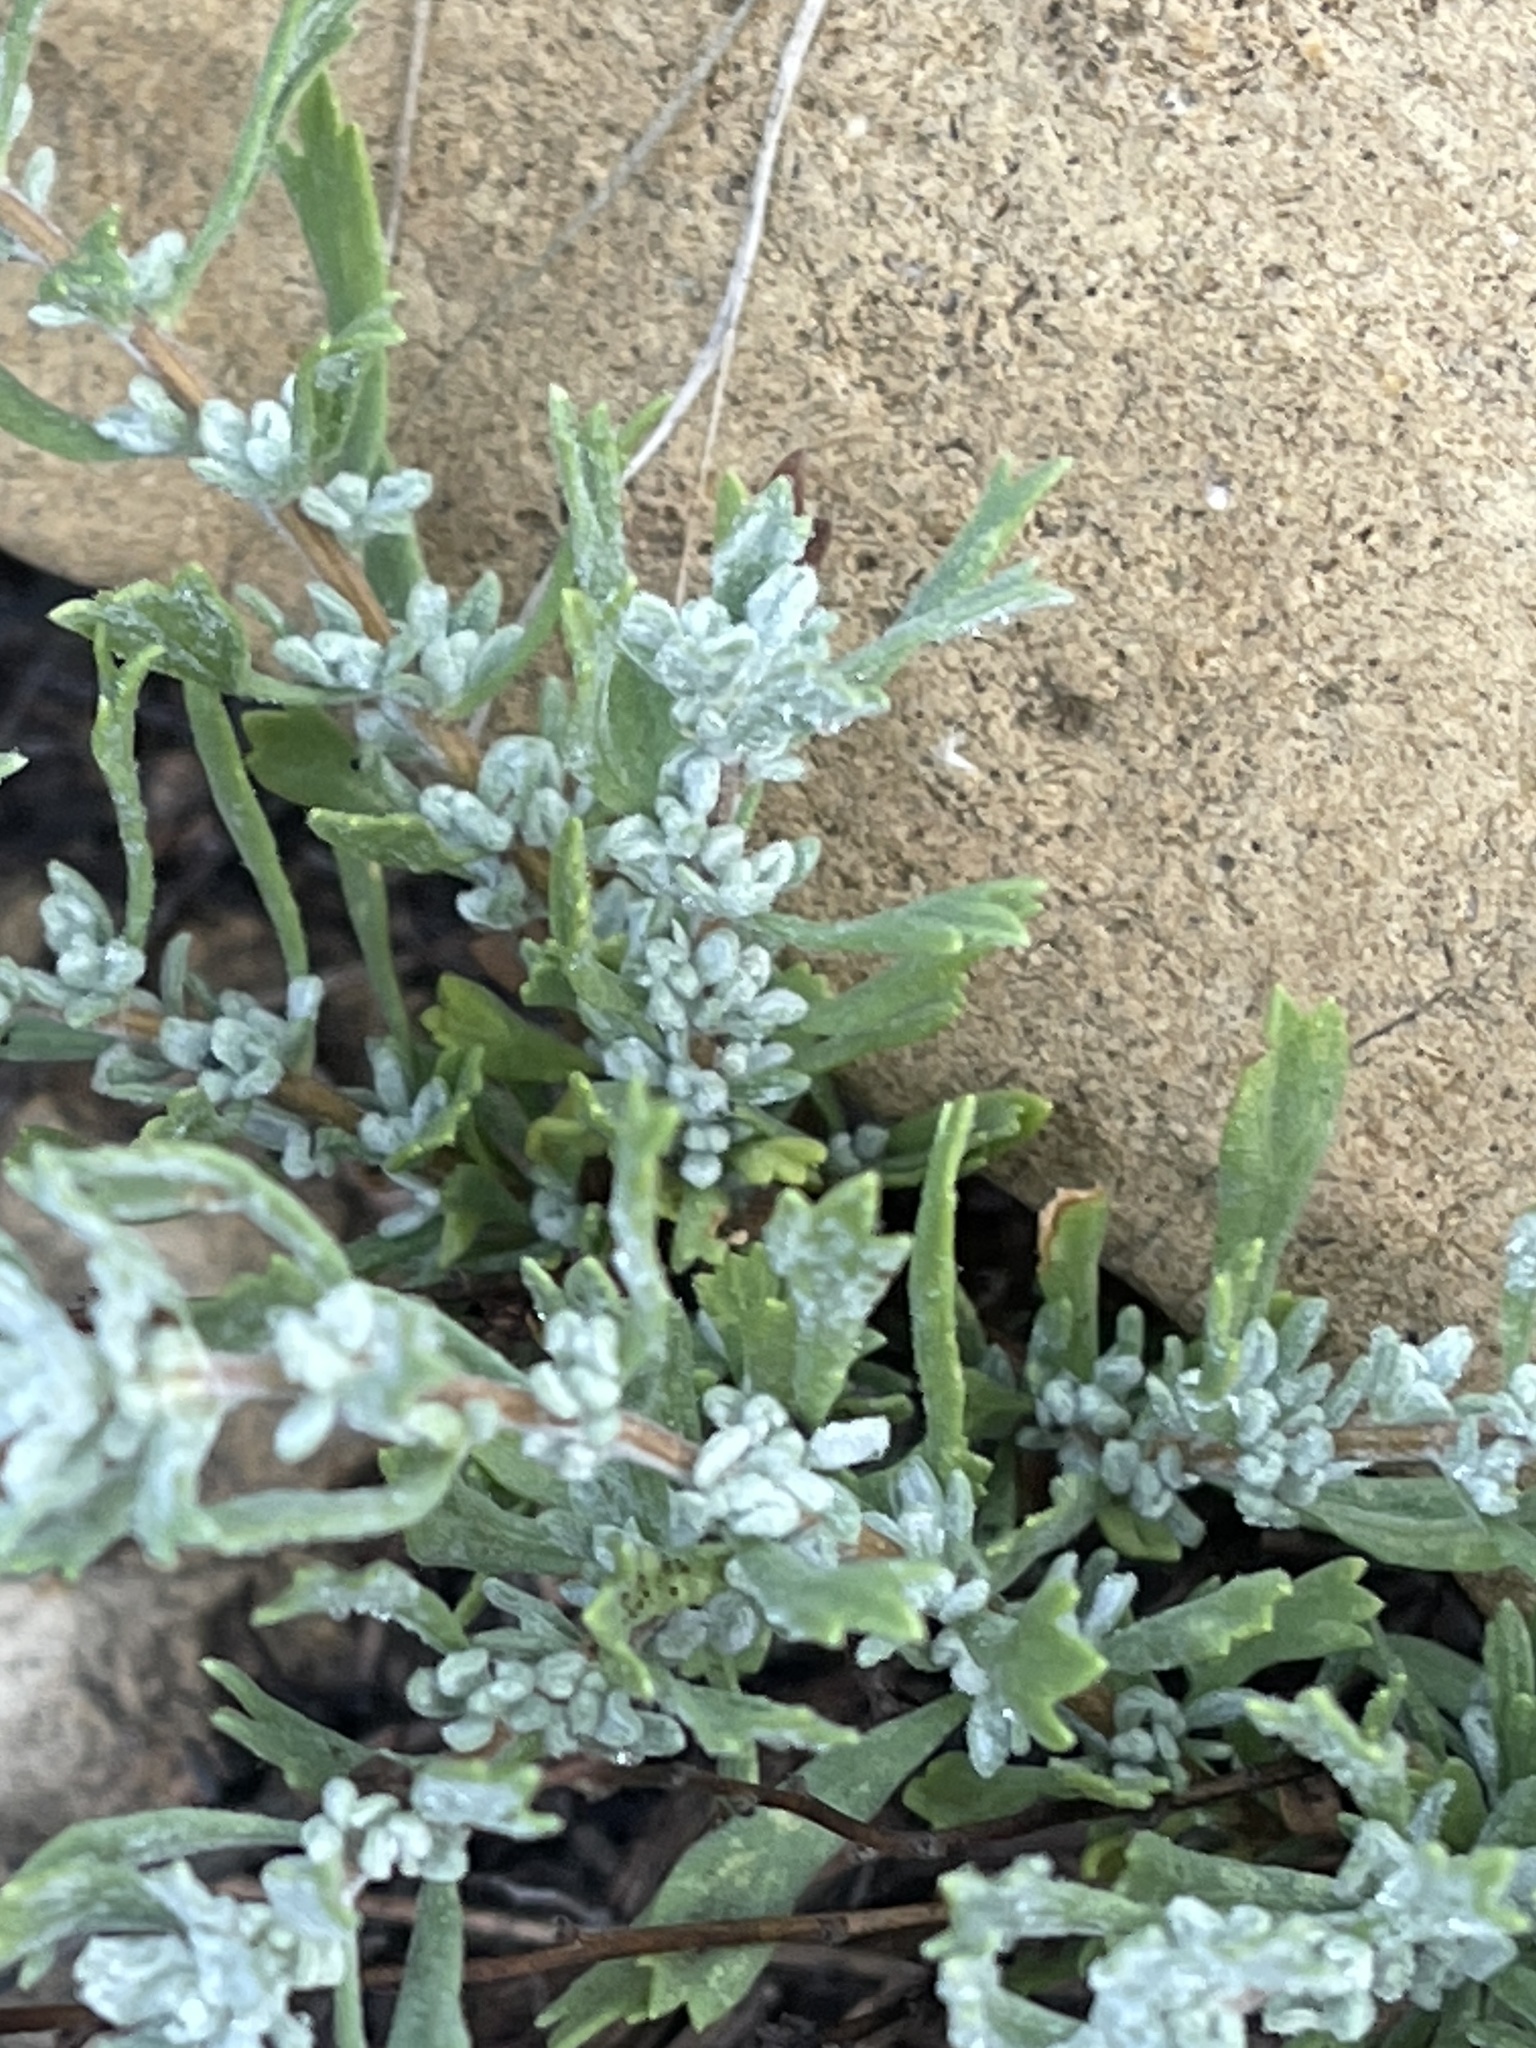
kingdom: Plantae
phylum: Tracheophyta
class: Magnoliopsida
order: Asterales
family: Asteraceae
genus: Artemisia
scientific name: Artemisia filifolia
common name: Sand-sage
